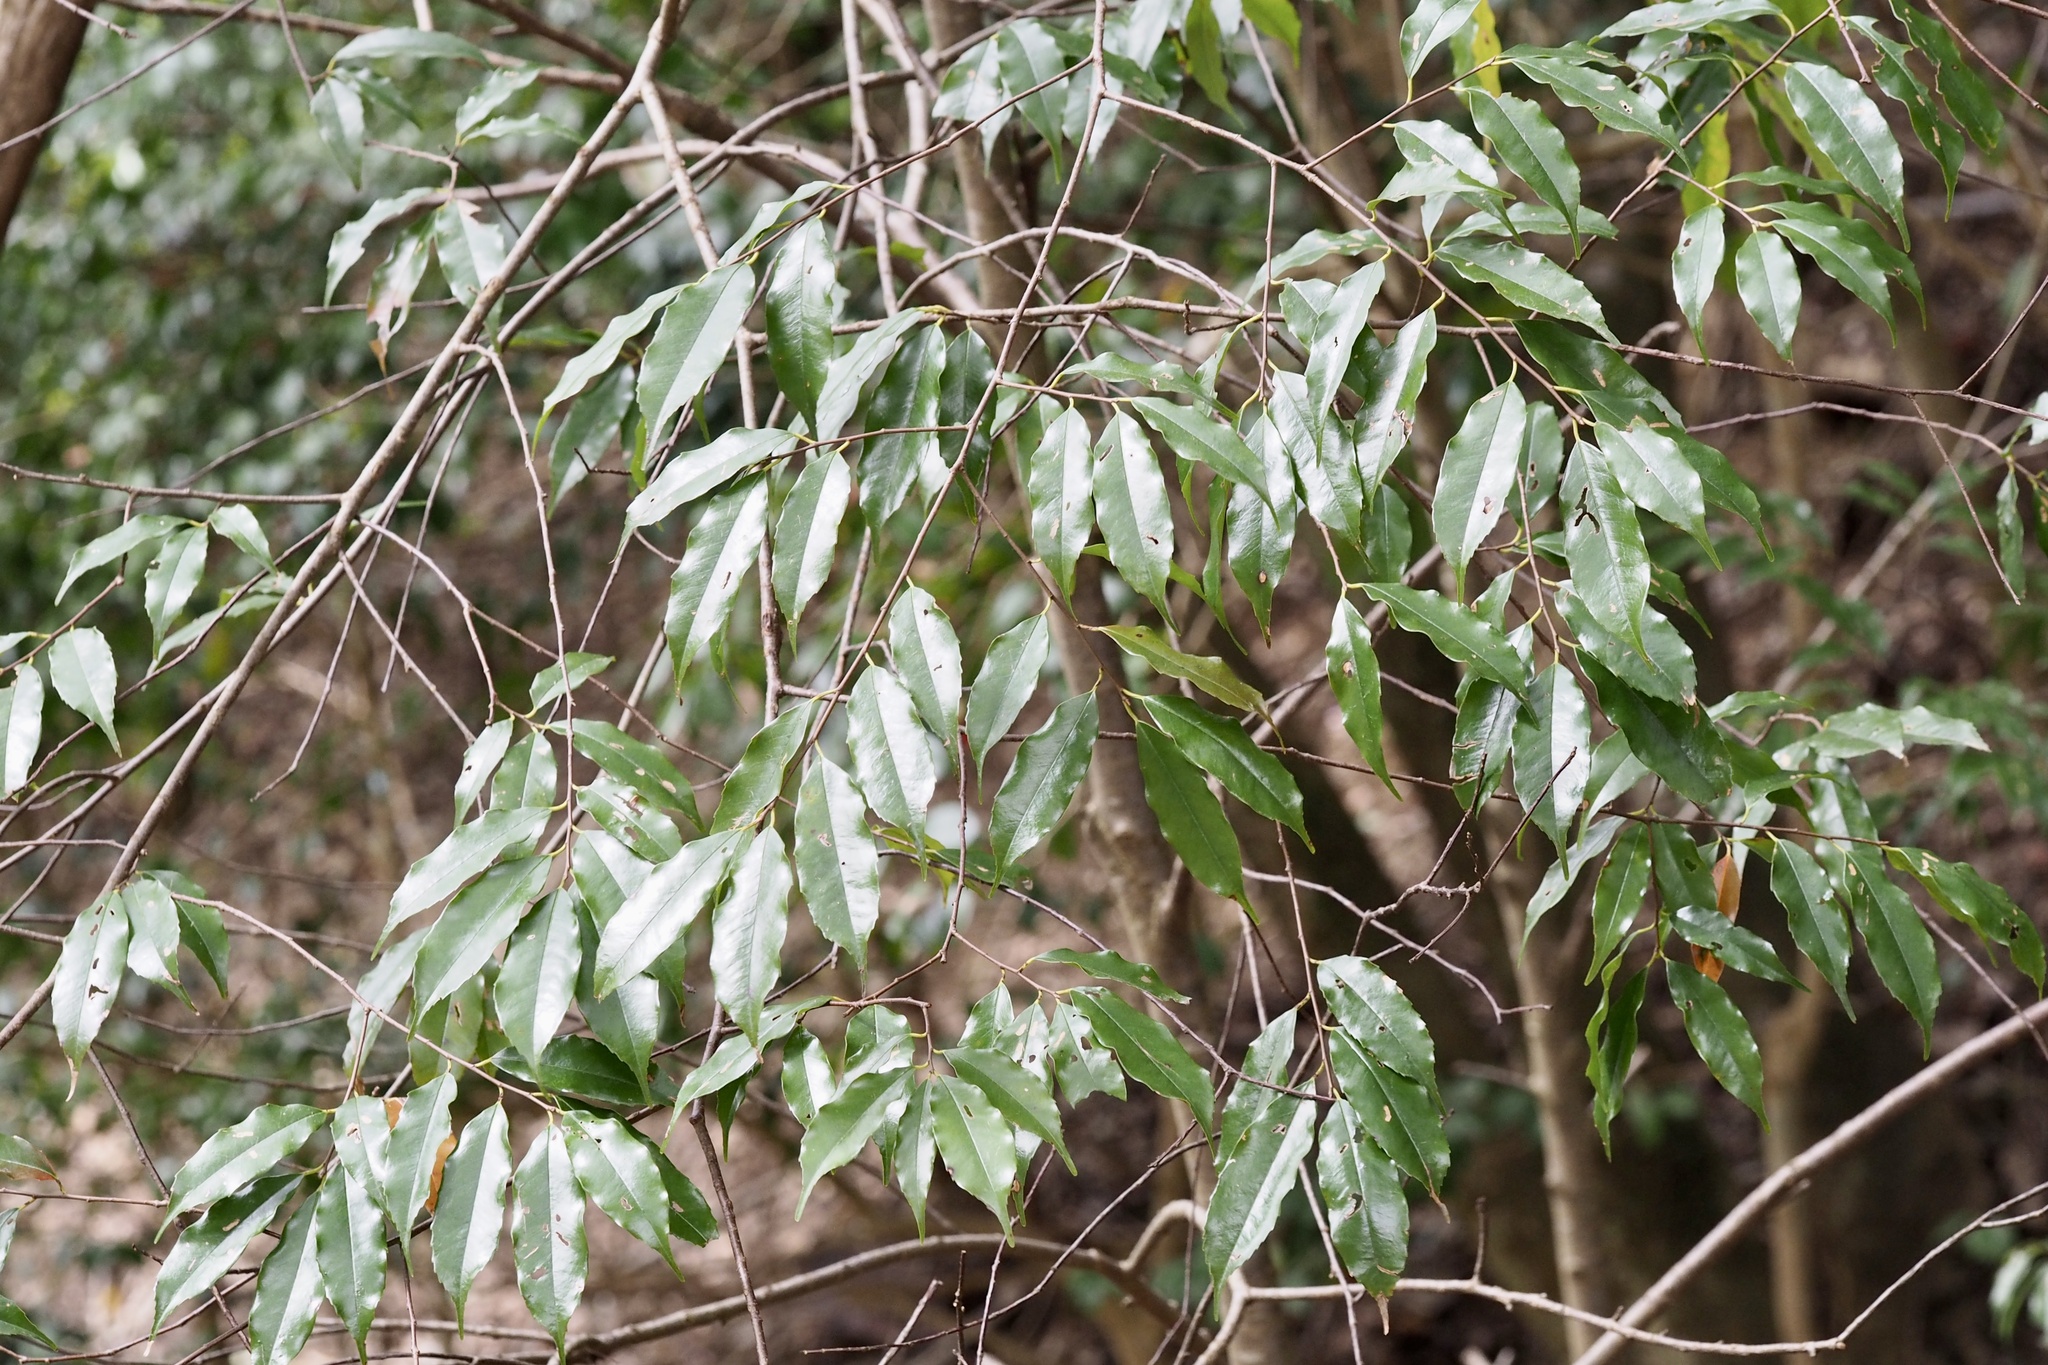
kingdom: Plantae
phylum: Tracheophyta
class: Magnoliopsida
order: Rosales
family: Rosaceae
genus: Prunus
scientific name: Prunus spinulosa
